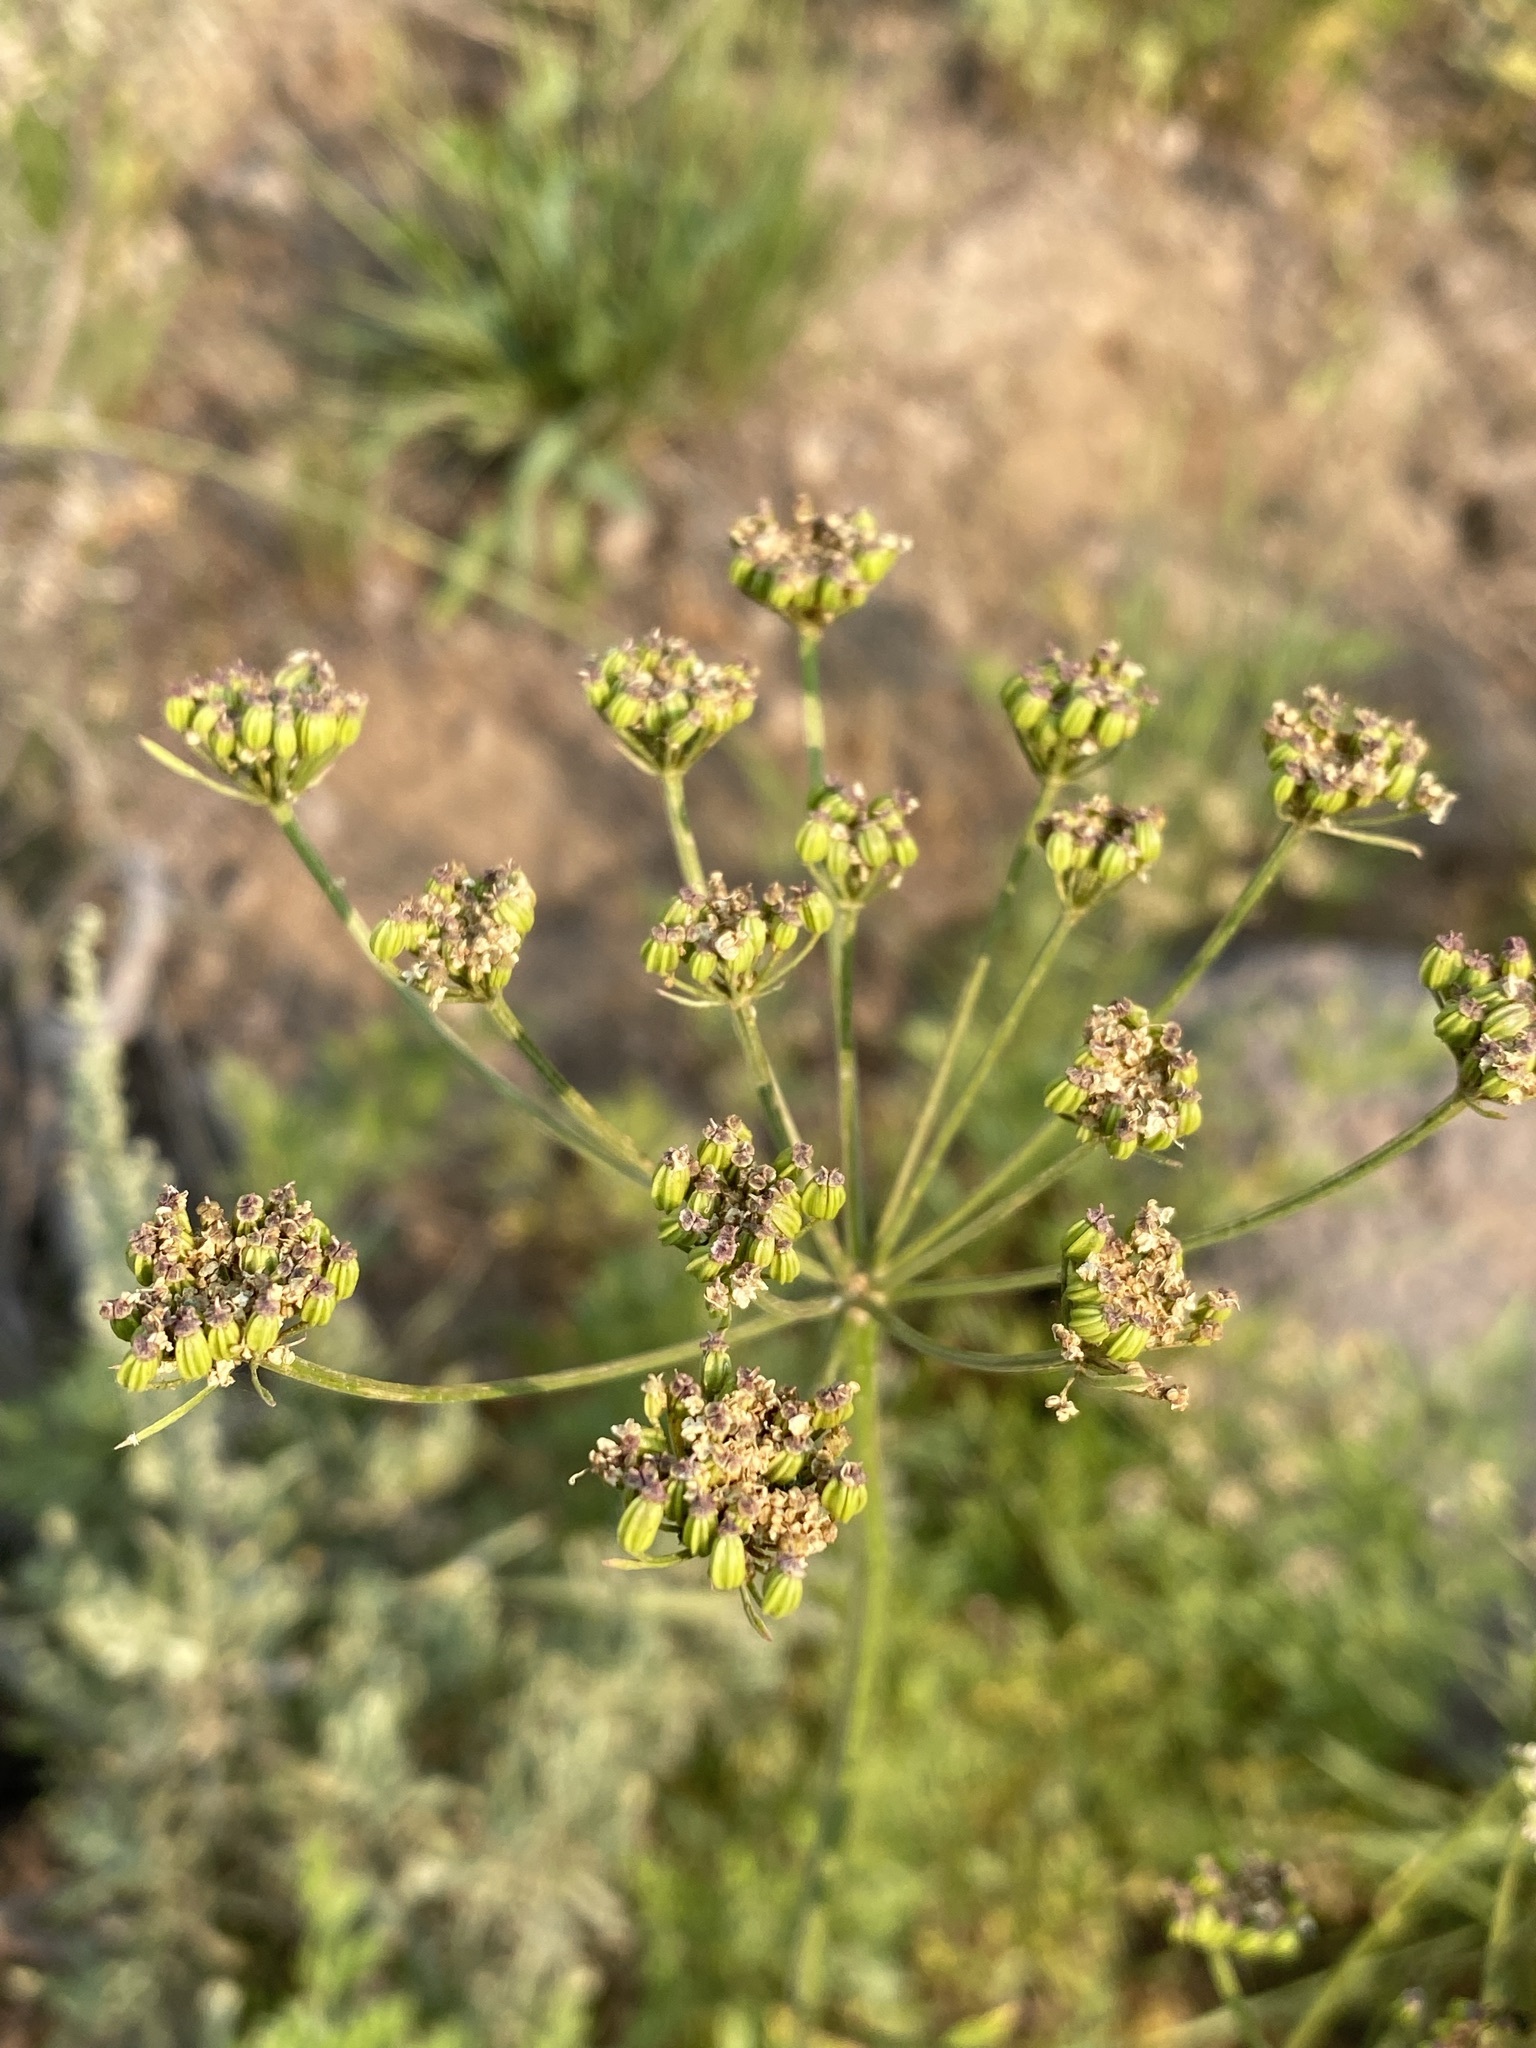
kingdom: Plantae
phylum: Tracheophyta
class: Magnoliopsida
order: Apiales
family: Apiaceae
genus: Ligusticum
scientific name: Ligusticum grayi
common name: Gray's licorice-root
